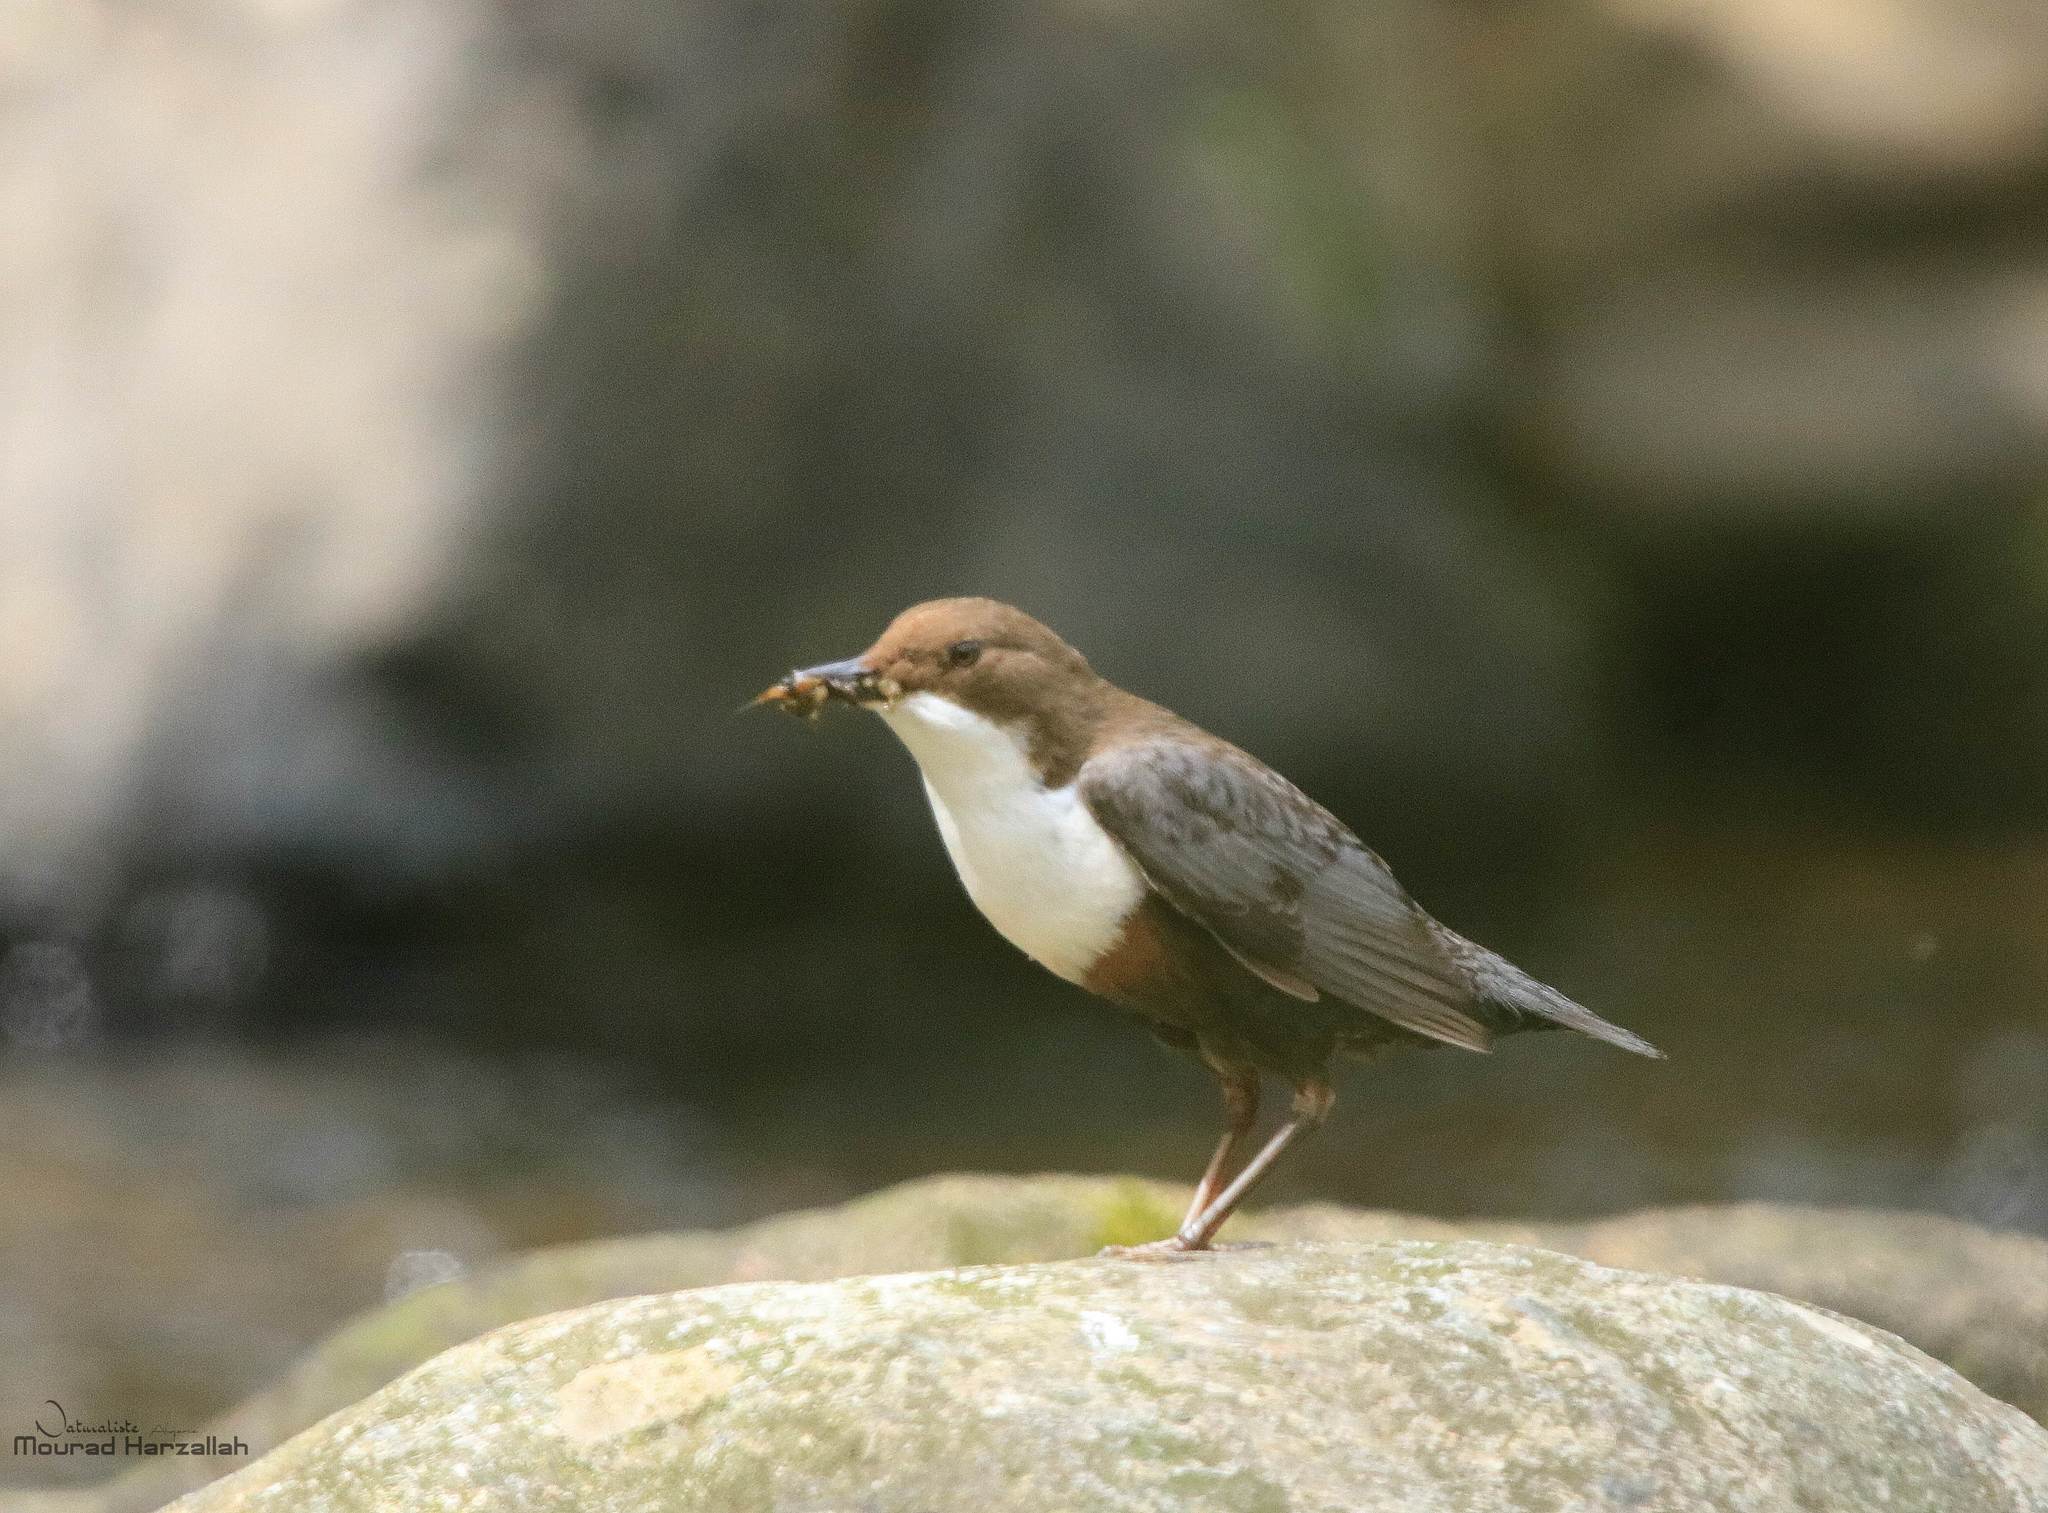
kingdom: Animalia
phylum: Chordata
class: Aves
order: Passeriformes
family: Cinclidae
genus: Cinclus
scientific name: Cinclus cinclus
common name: White-throated dipper
